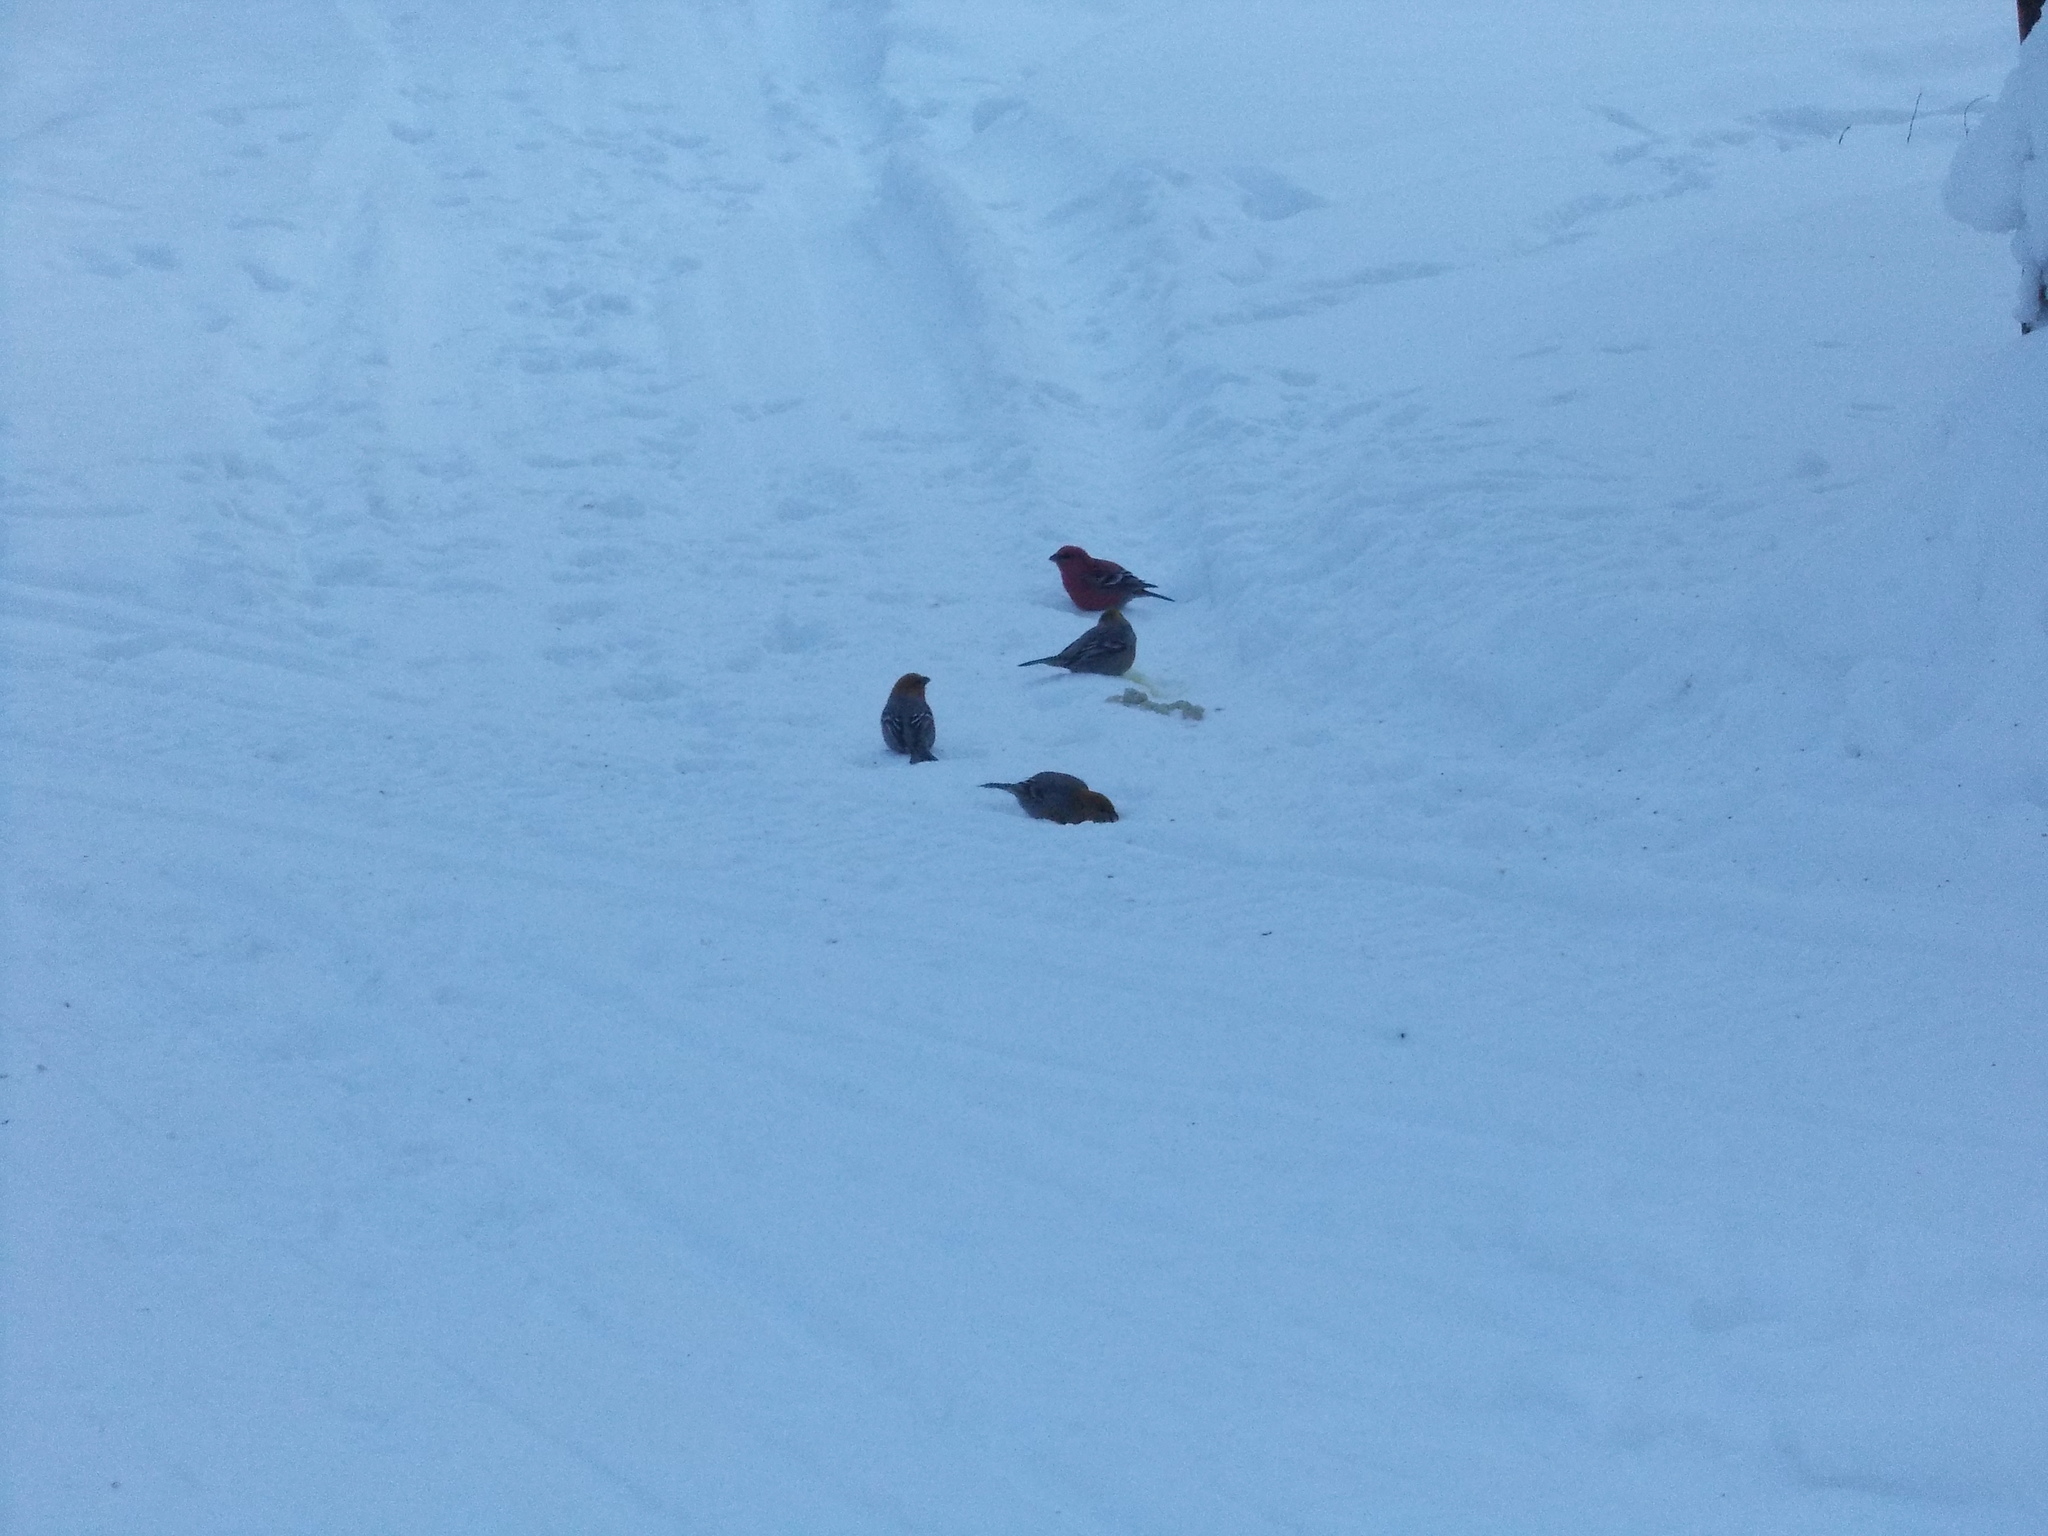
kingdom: Animalia
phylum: Chordata
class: Aves
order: Passeriformes
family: Fringillidae
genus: Pinicola
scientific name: Pinicola enucleator
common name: Pine grosbeak
